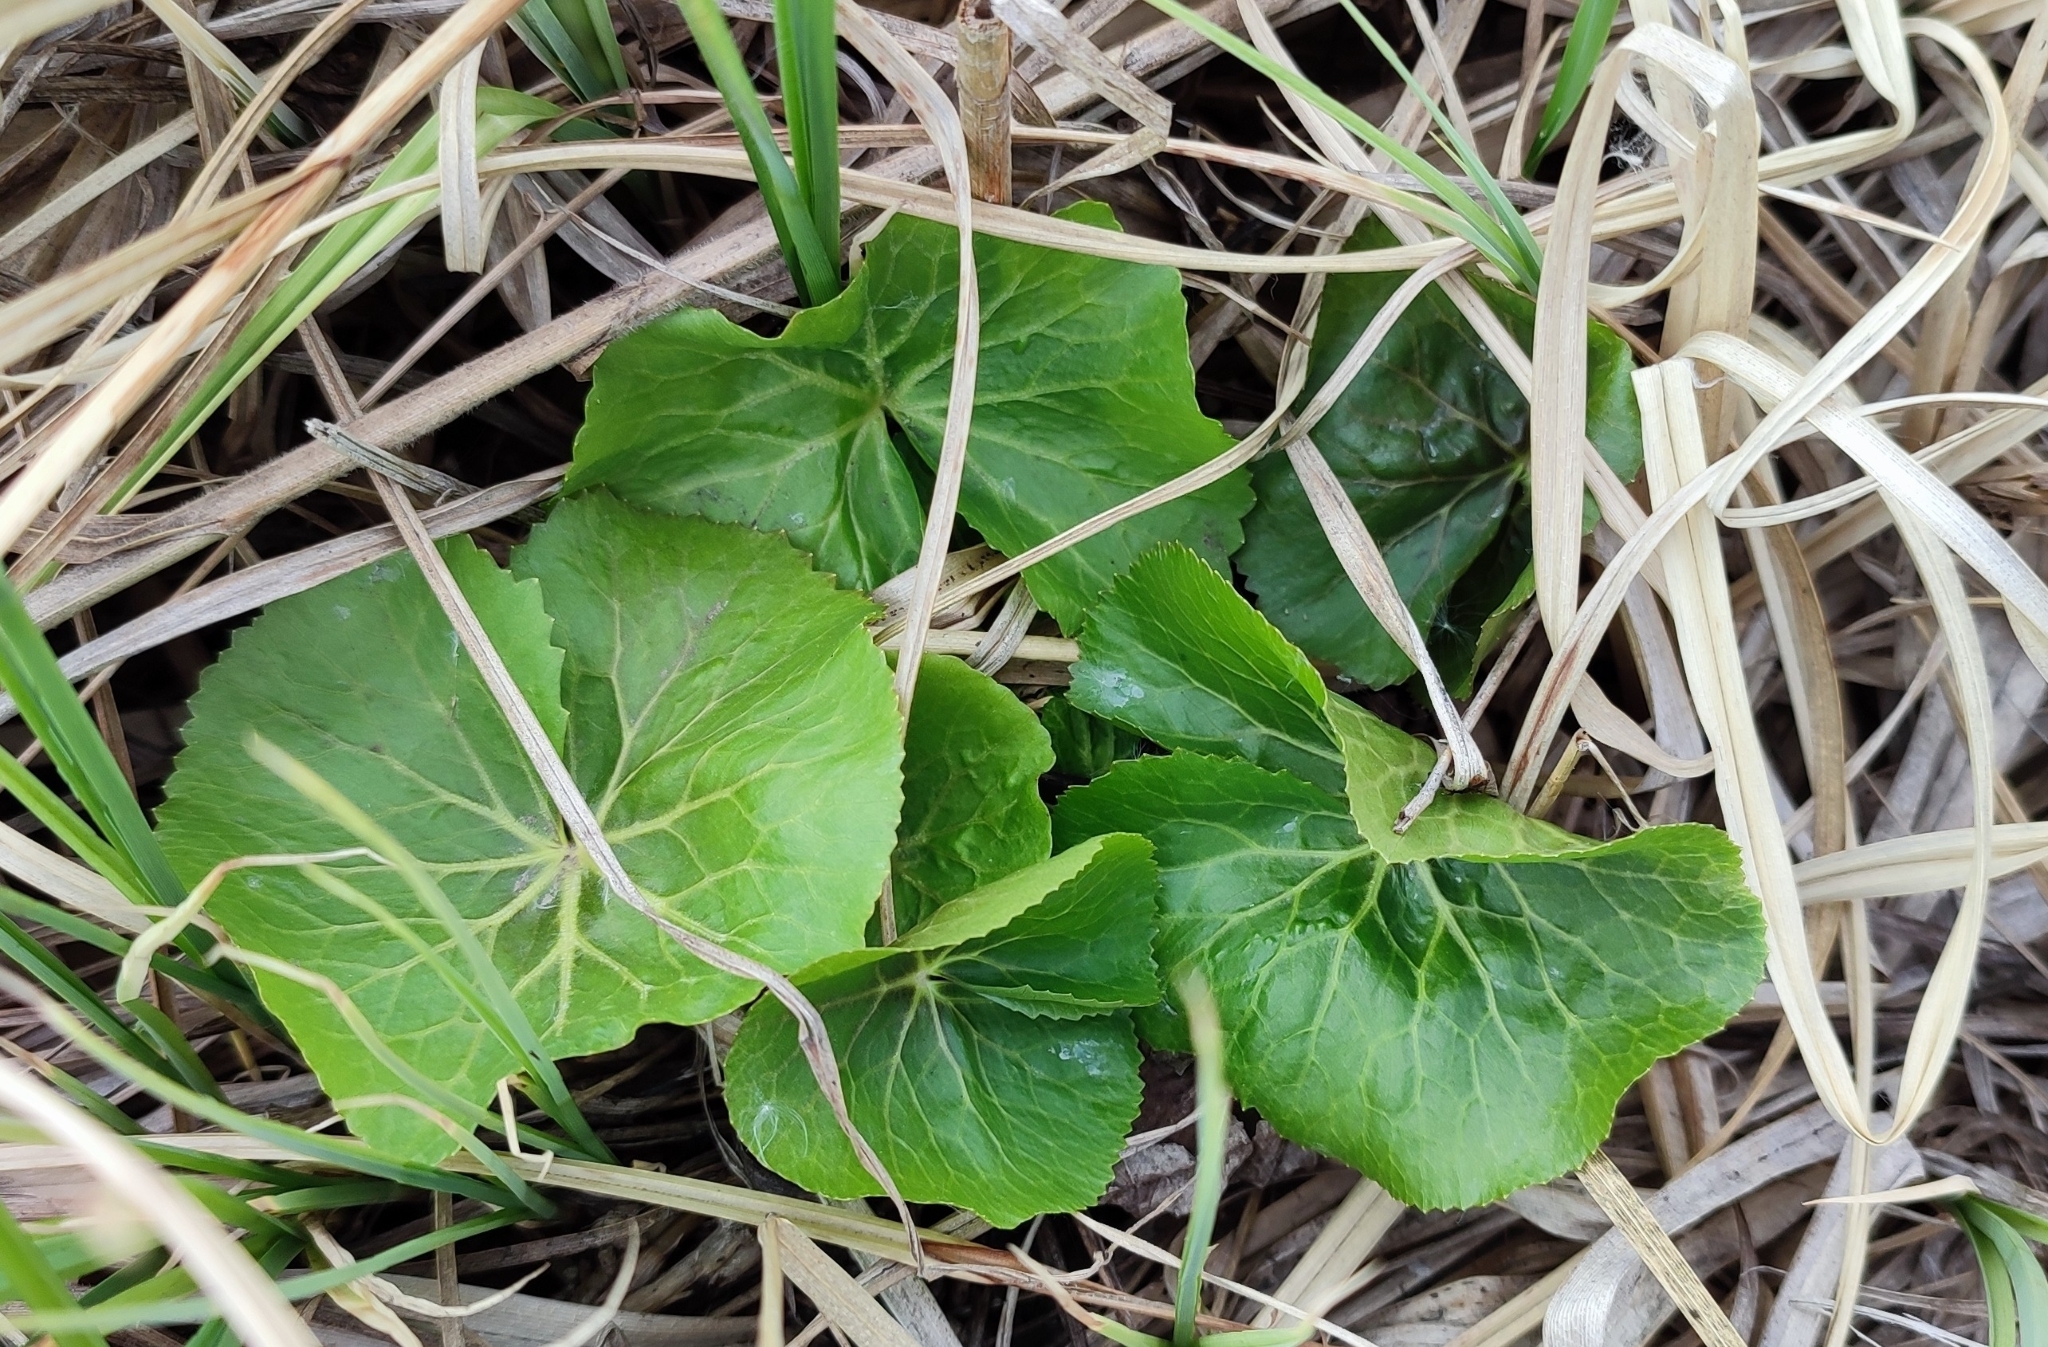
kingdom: Plantae
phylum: Tracheophyta
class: Magnoliopsida
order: Ranunculales
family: Ranunculaceae
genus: Caltha
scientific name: Caltha palustris
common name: Marsh marigold
